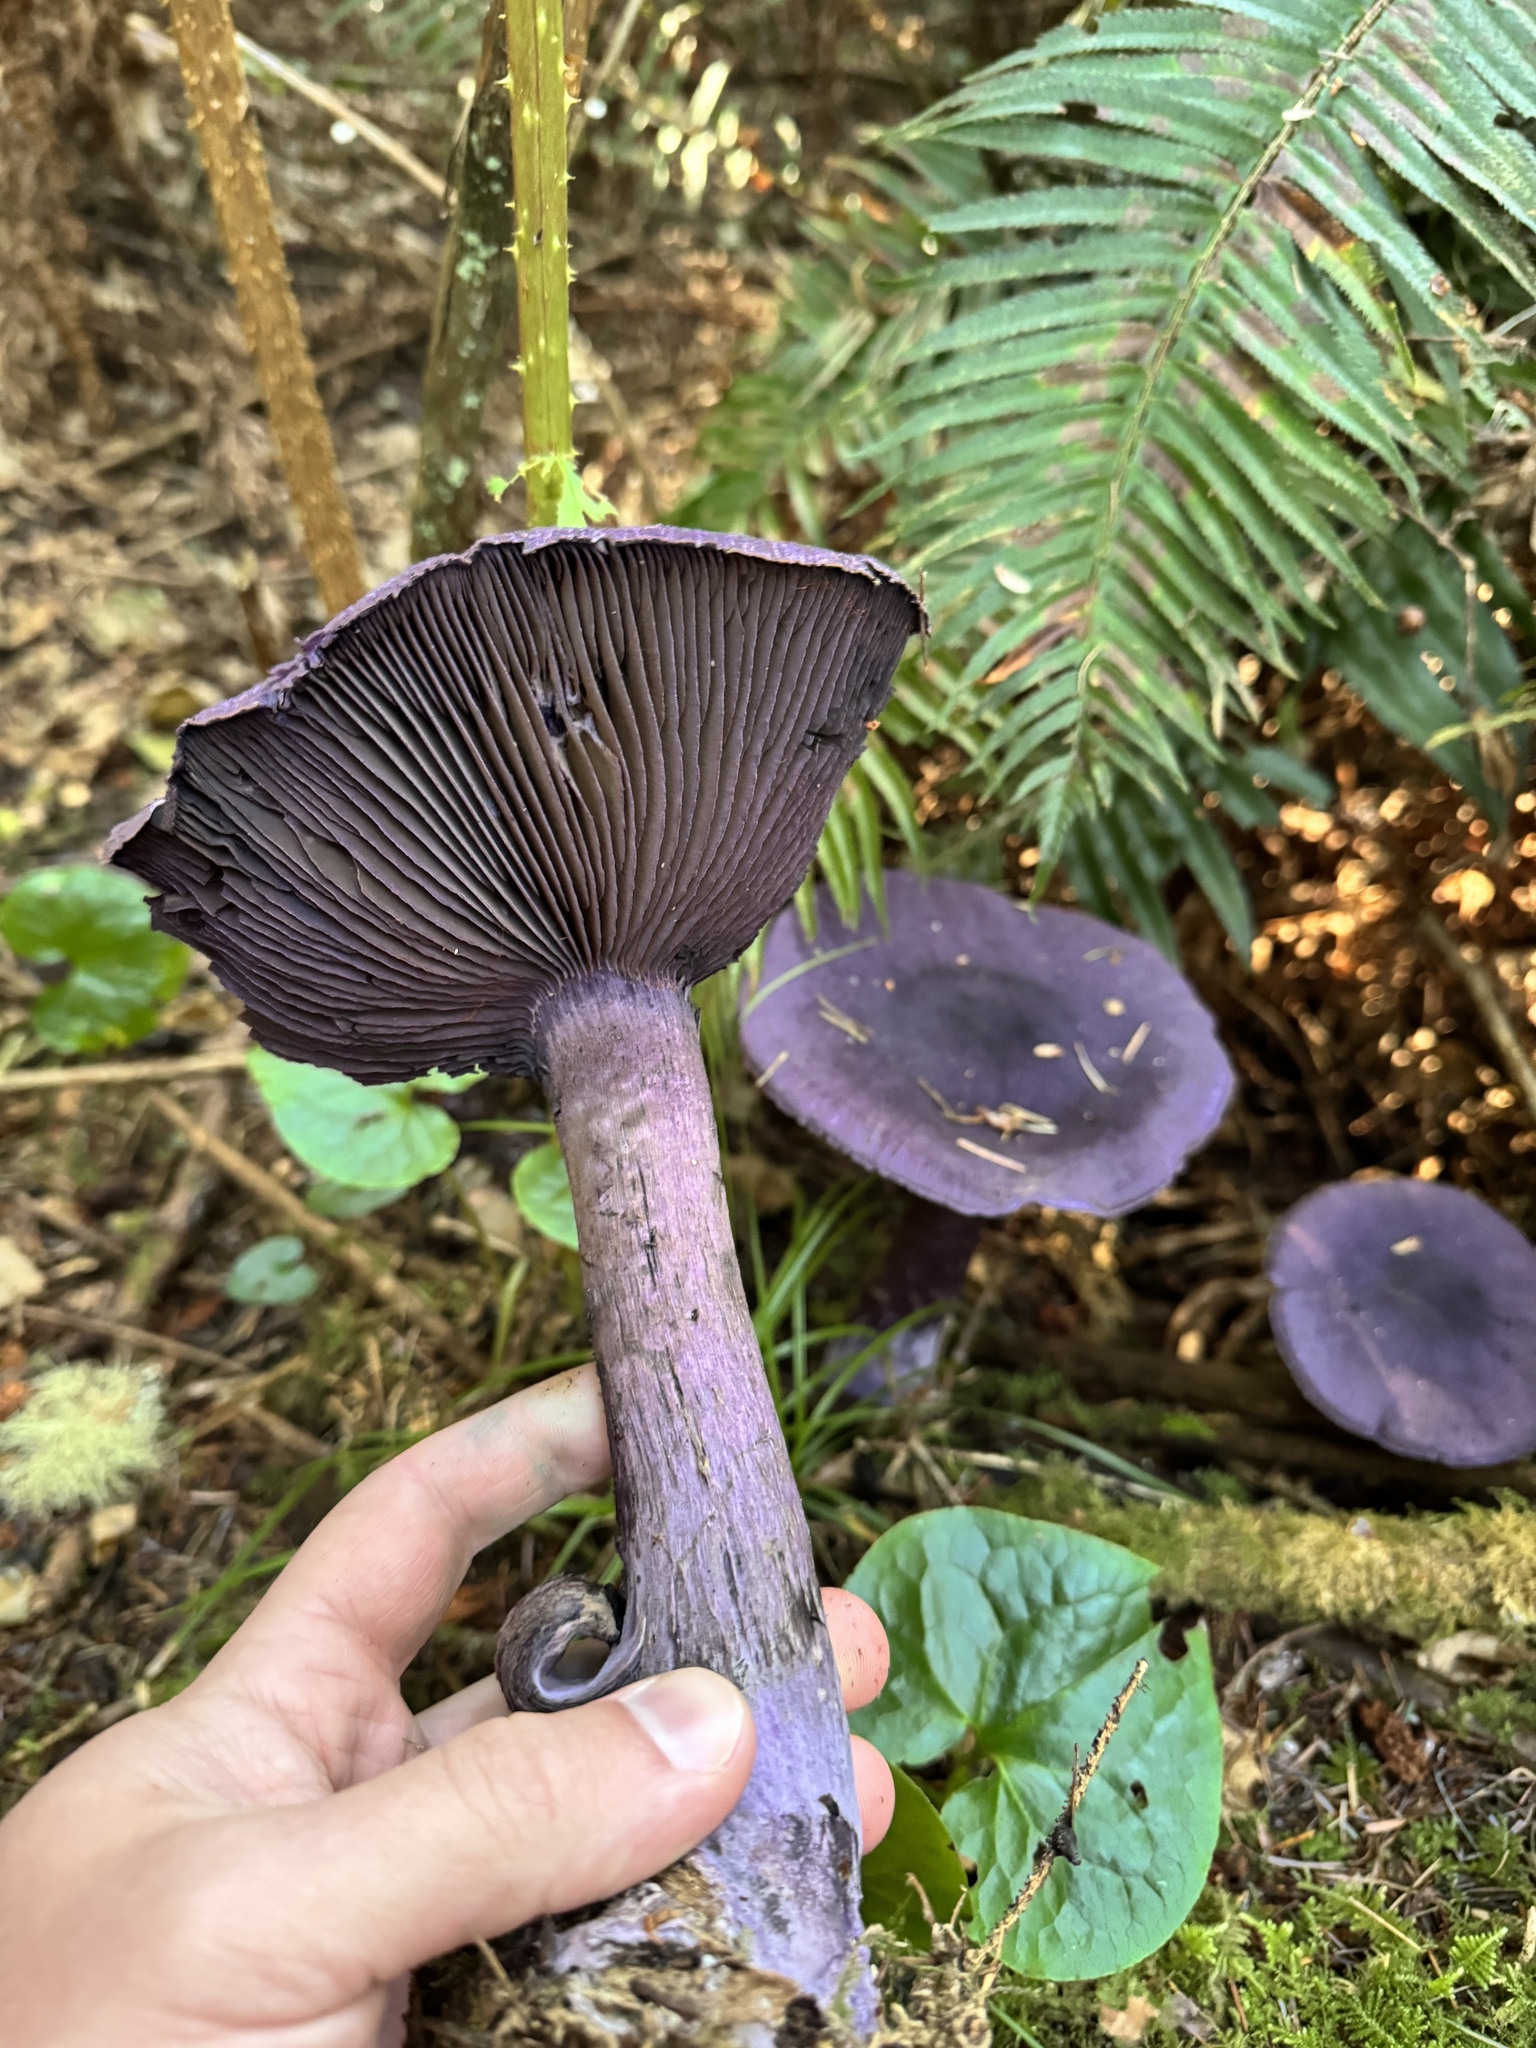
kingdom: Fungi
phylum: Basidiomycota
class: Agaricomycetes
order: Agaricales
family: Cortinariaceae
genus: Cortinarius
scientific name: Cortinarius violaceus
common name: Violet webcap
